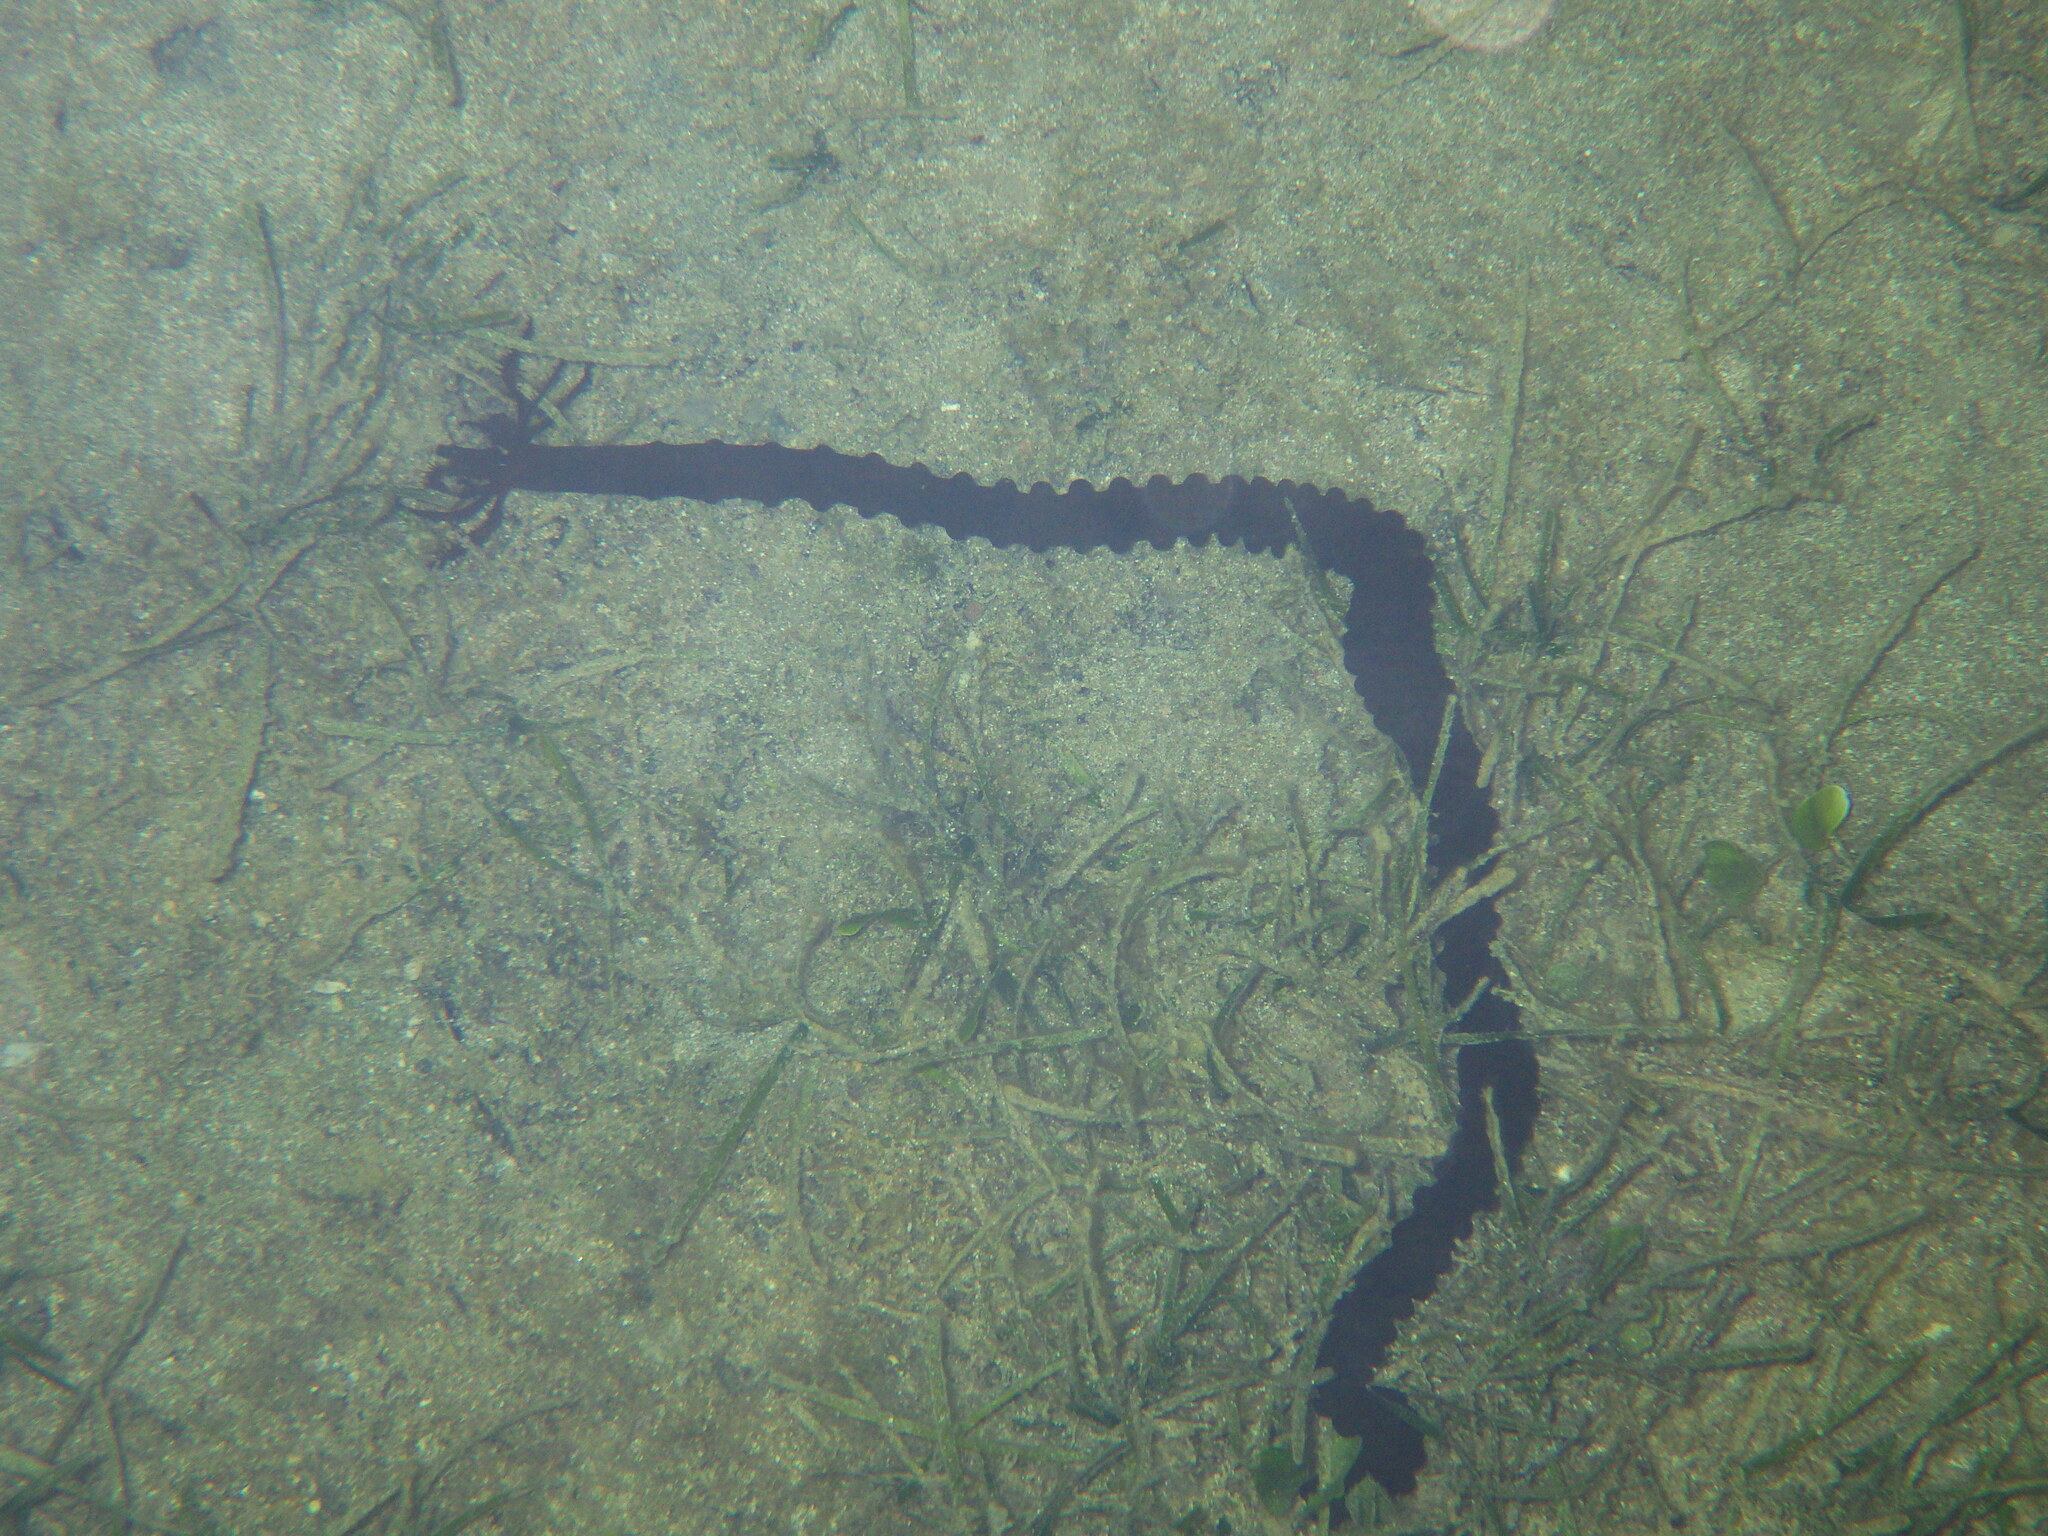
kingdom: Animalia
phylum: Echinodermata
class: Holothuroidea
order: Apodida
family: Synaptidae
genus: Synaptula
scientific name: Synaptula reciprocans
